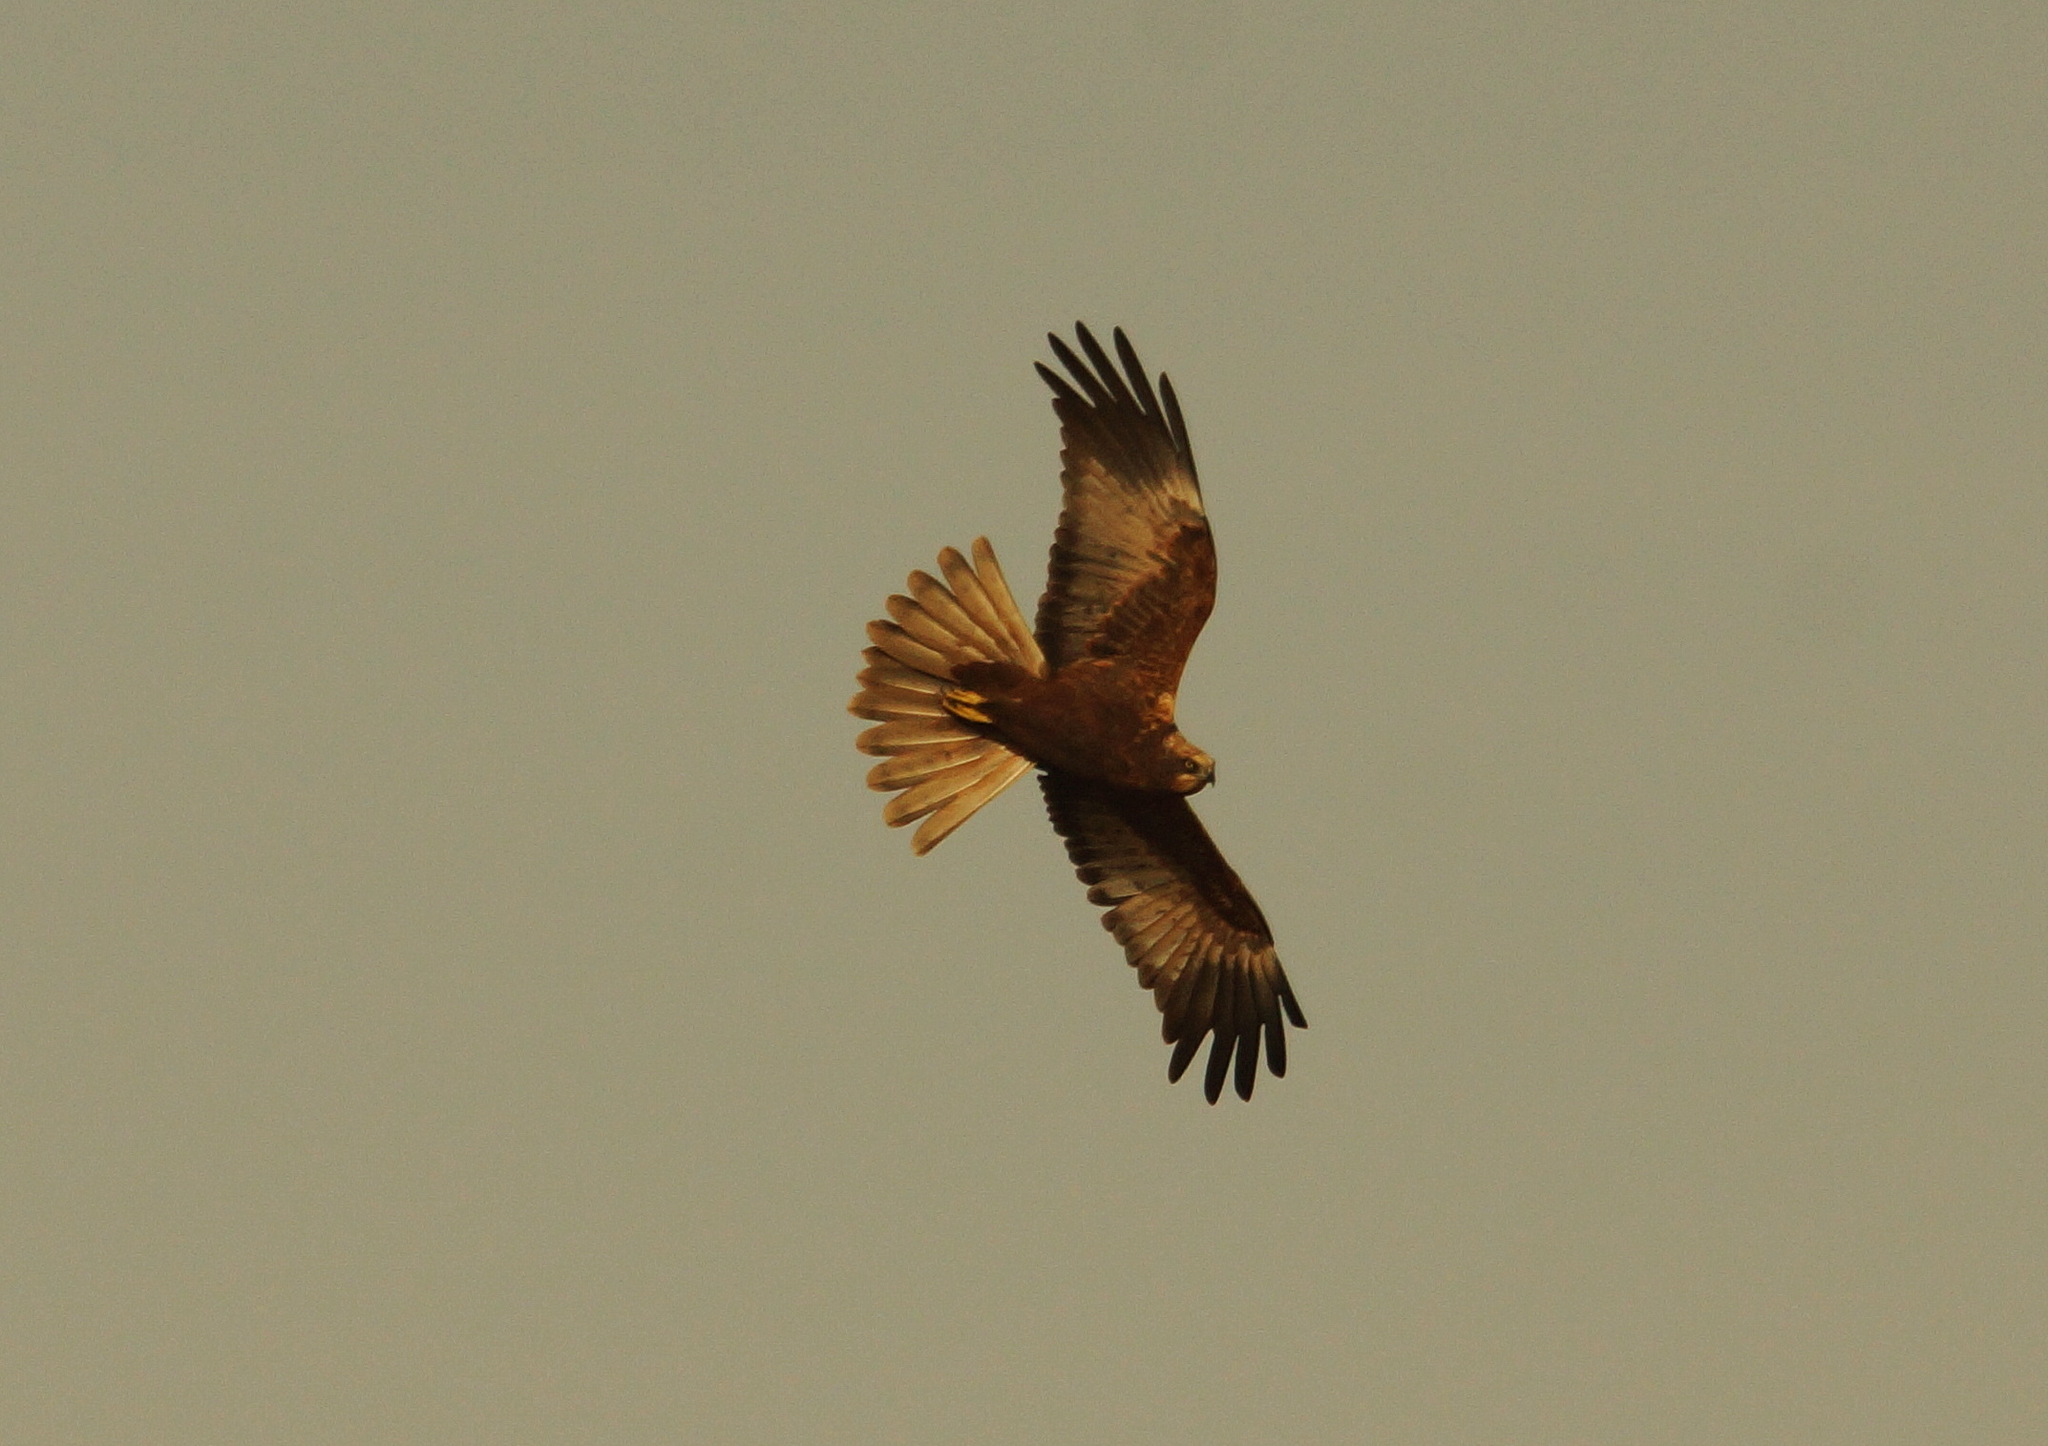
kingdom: Animalia
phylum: Chordata
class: Aves
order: Accipitriformes
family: Accipitridae
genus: Circus
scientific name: Circus aeruginosus
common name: Western marsh harrier
